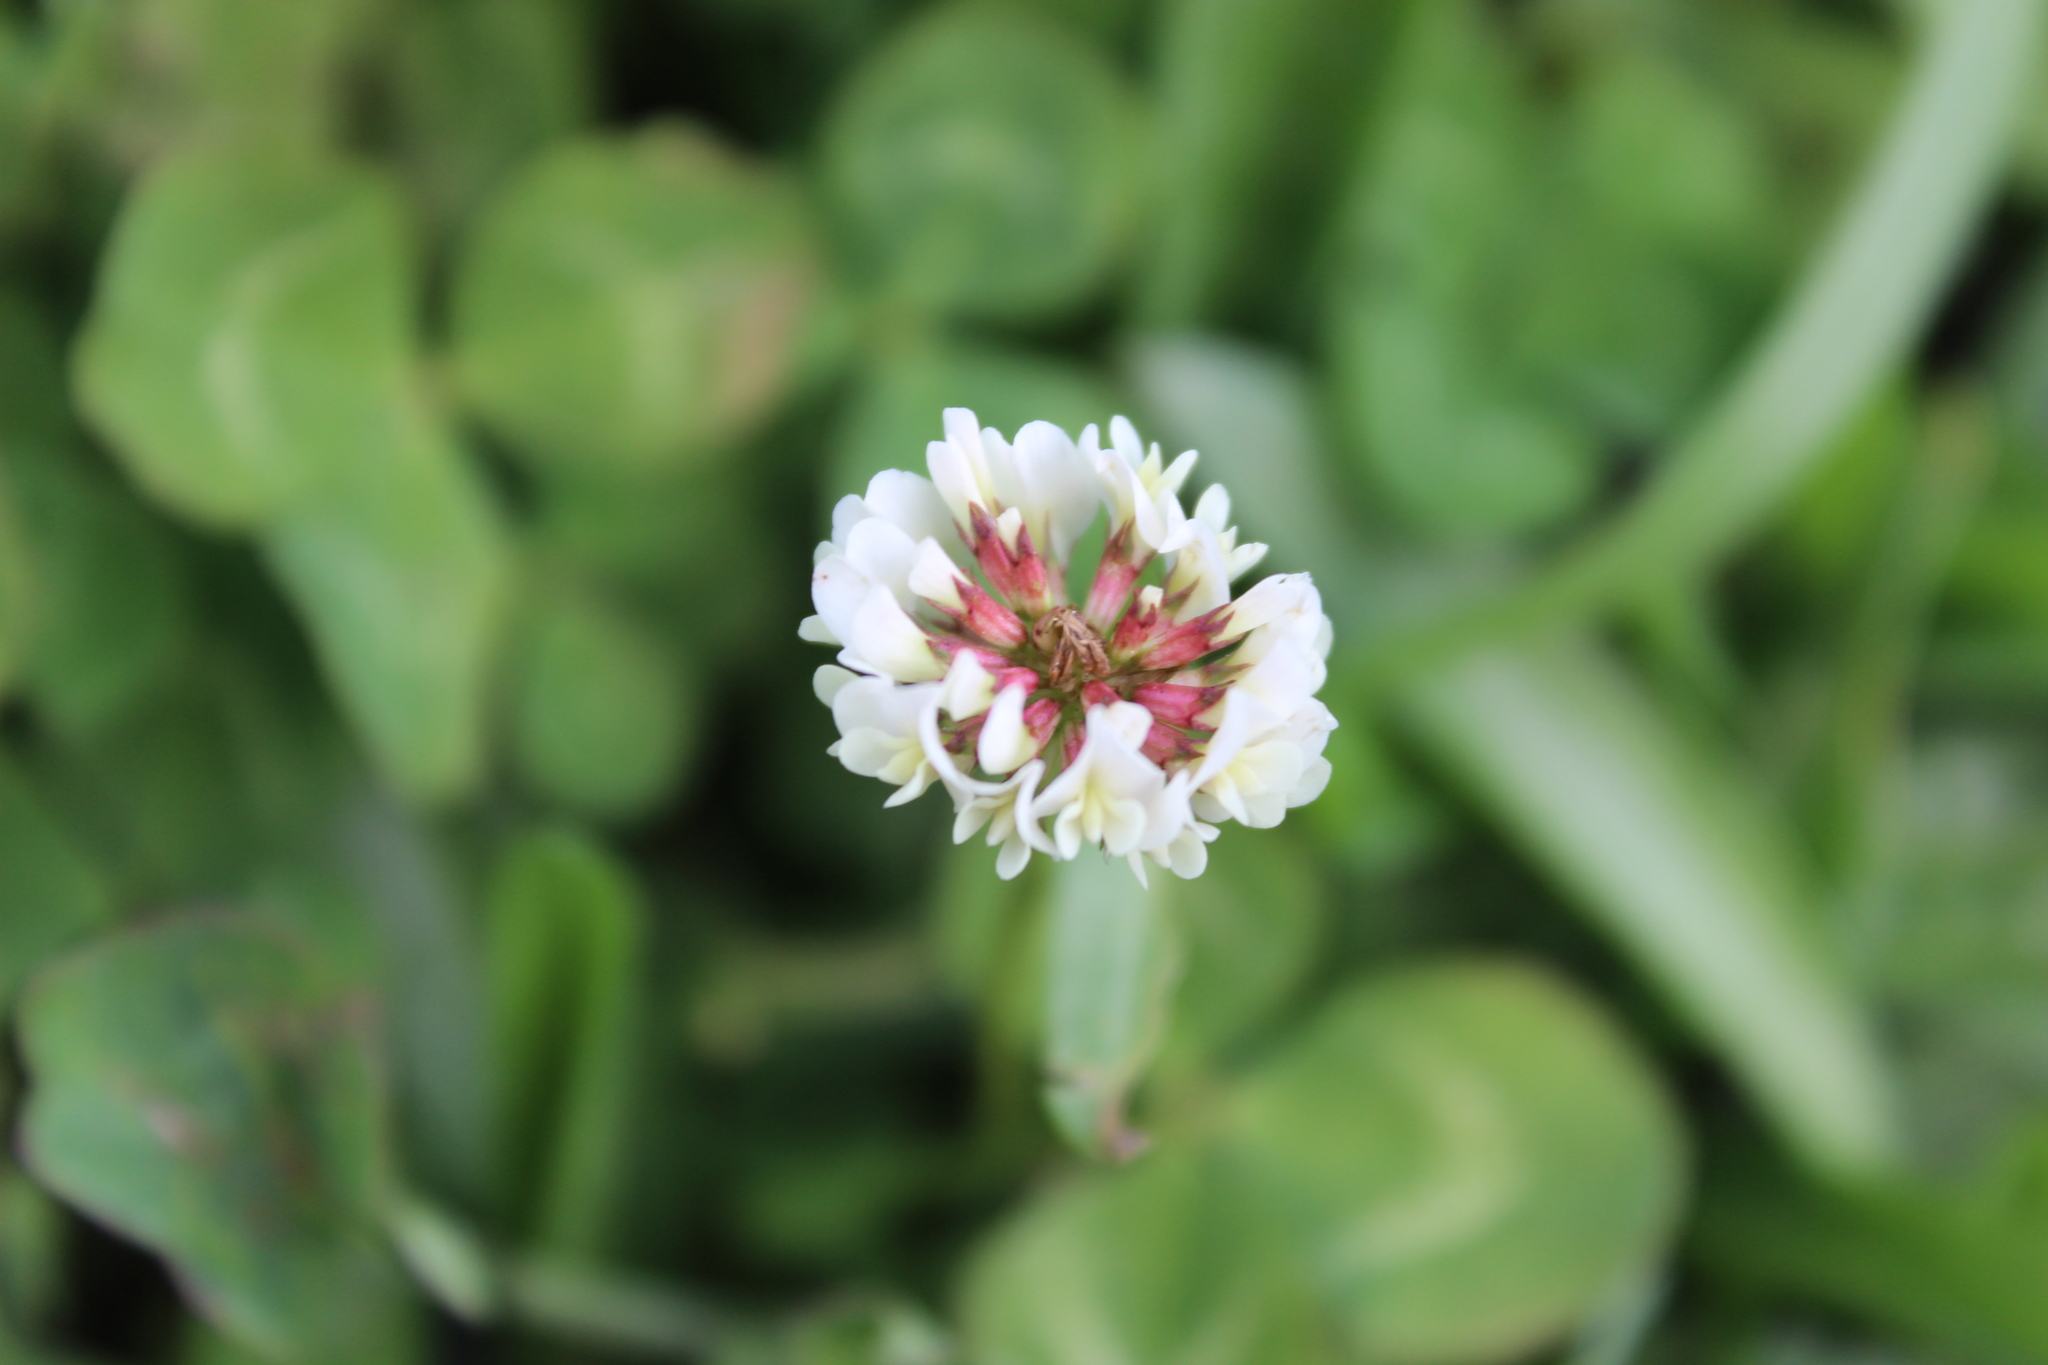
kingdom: Plantae
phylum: Tracheophyta
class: Magnoliopsida
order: Fabales
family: Fabaceae
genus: Trifolium
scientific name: Trifolium repens
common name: White clover
